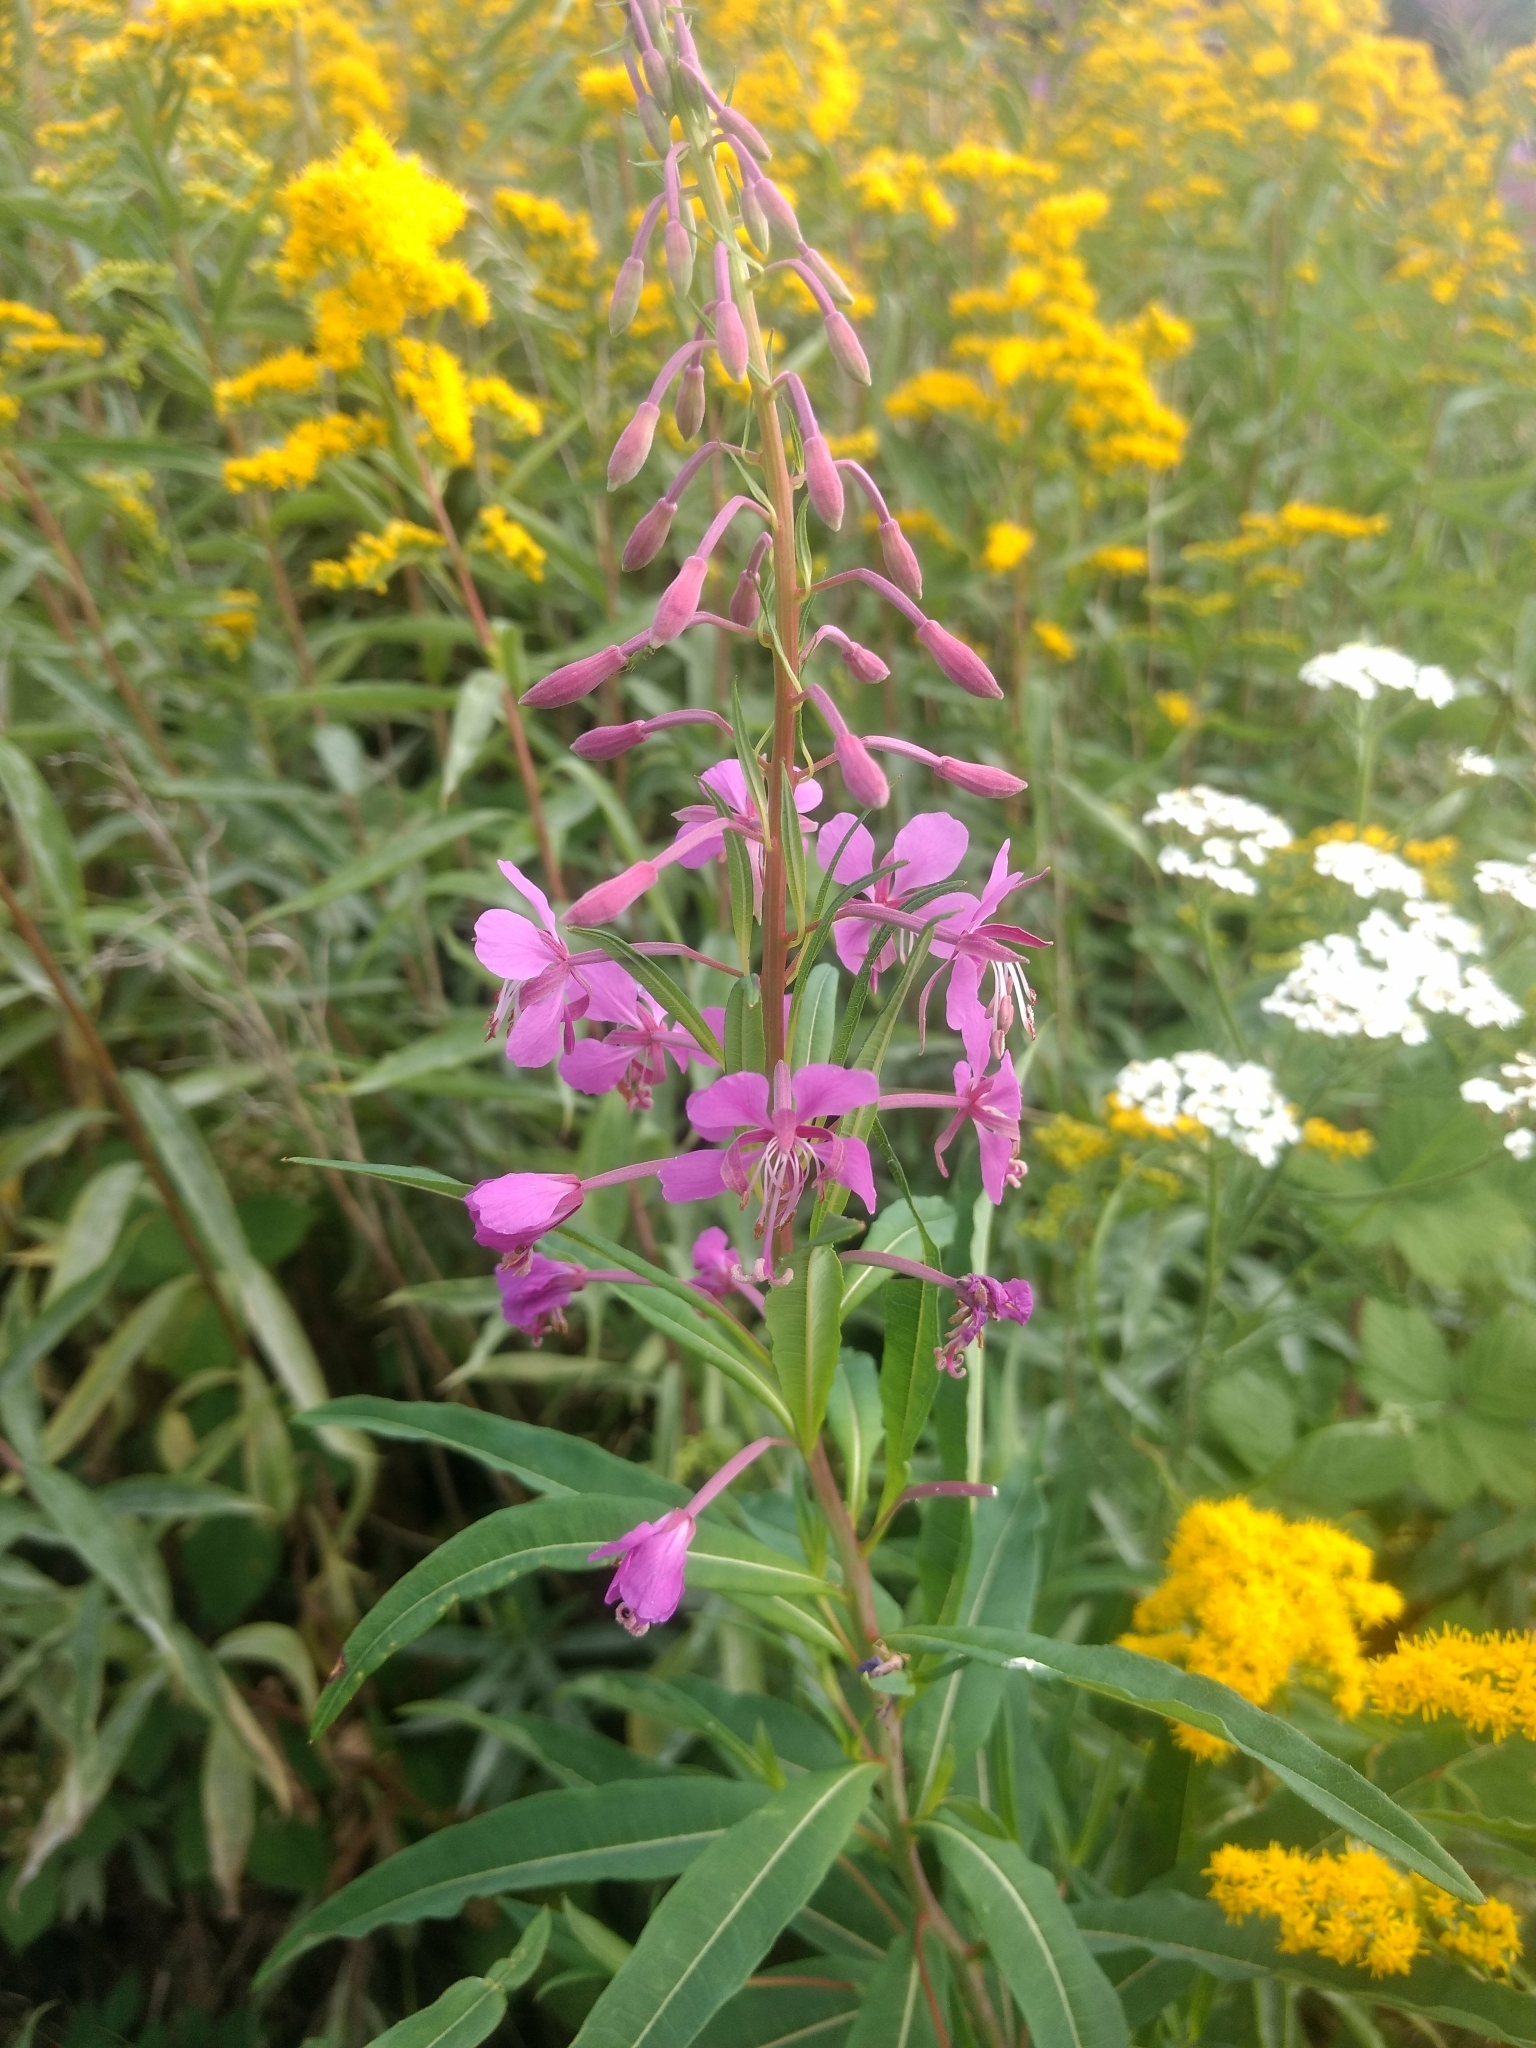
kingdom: Plantae
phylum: Tracheophyta
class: Magnoliopsida
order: Myrtales
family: Onagraceae
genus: Chamaenerion
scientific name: Chamaenerion angustifolium
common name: Fireweed
